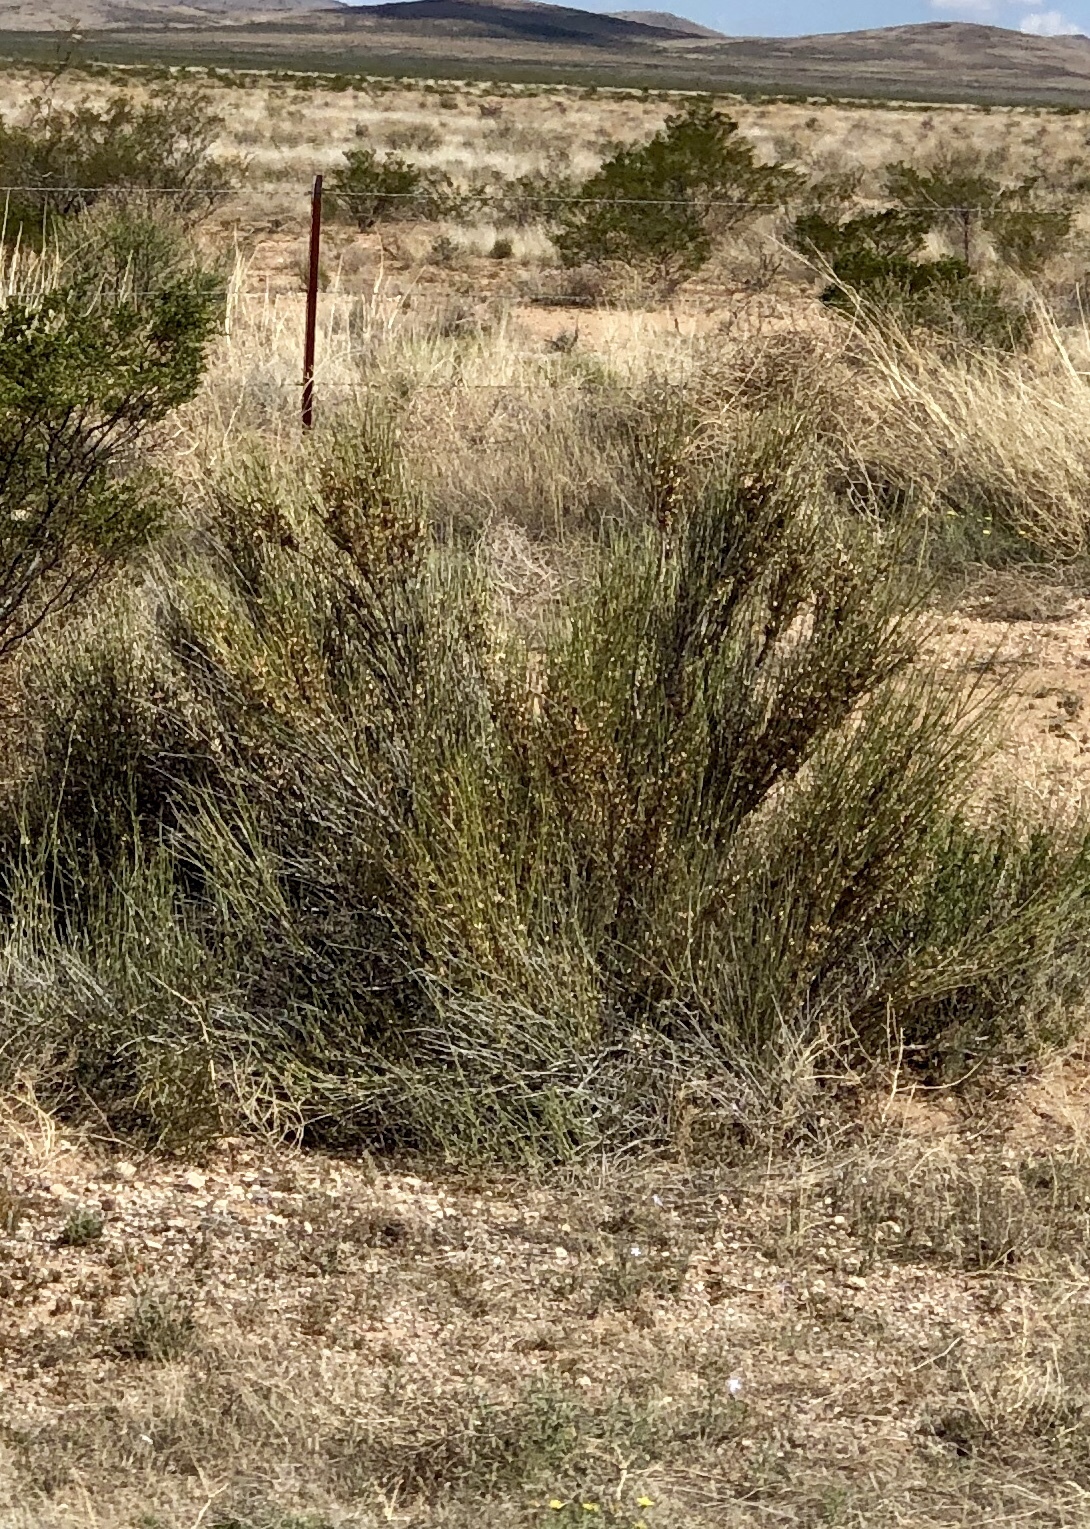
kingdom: Plantae
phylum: Tracheophyta
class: Gnetopsida
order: Ephedrales
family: Ephedraceae
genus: Ephedra
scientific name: Ephedra trifurca
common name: Mexican-tea
